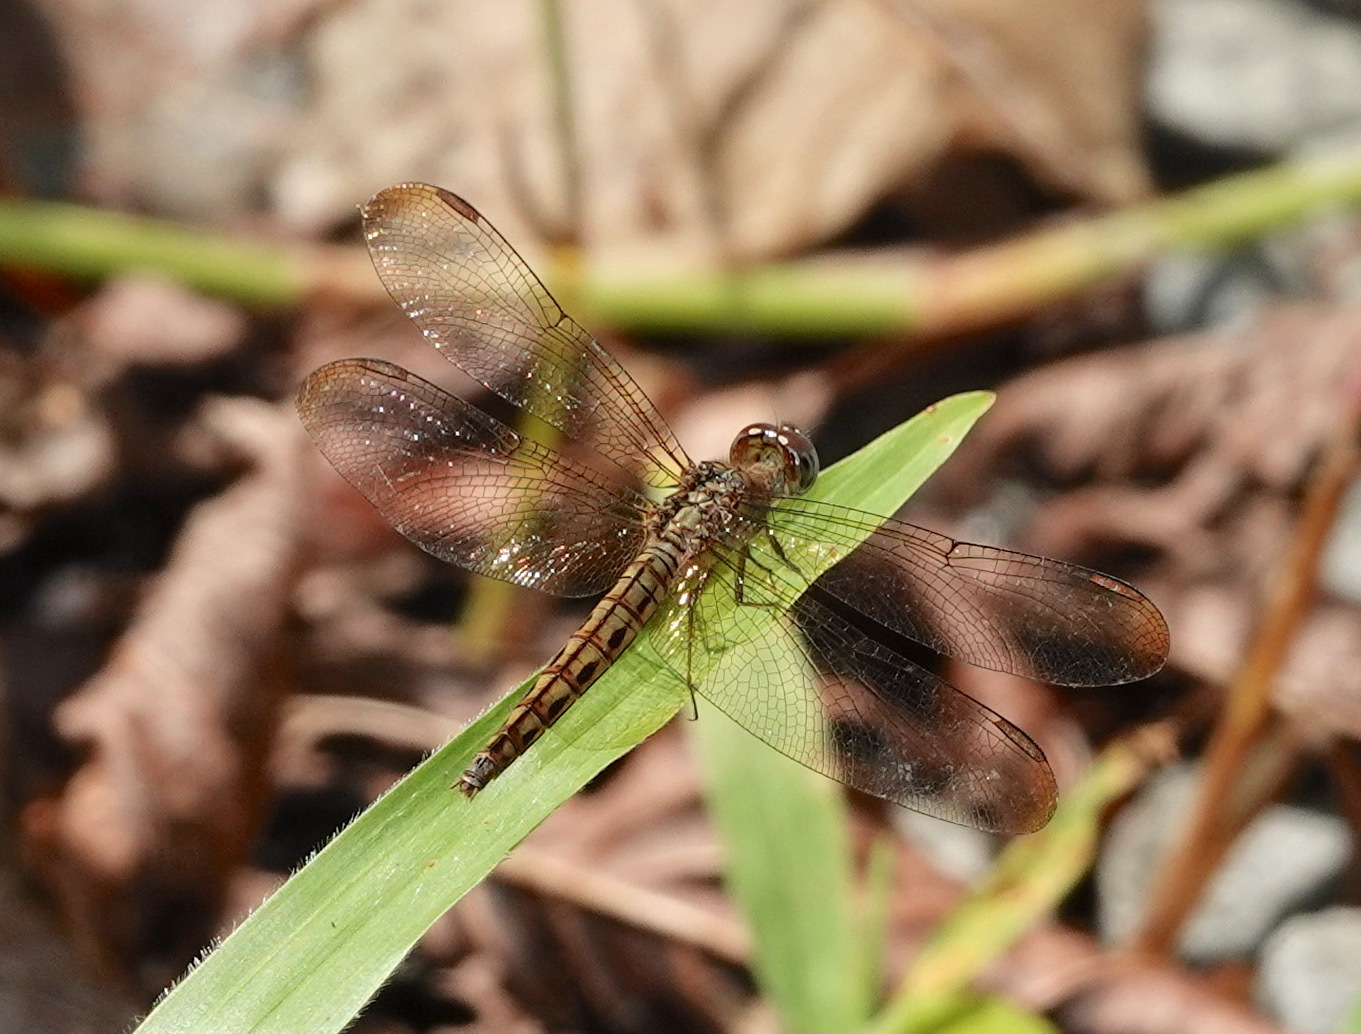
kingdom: Animalia
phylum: Arthropoda
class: Insecta
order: Odonata
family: Libellulidae
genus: Neurothemis
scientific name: Neurothemis fluctuans
